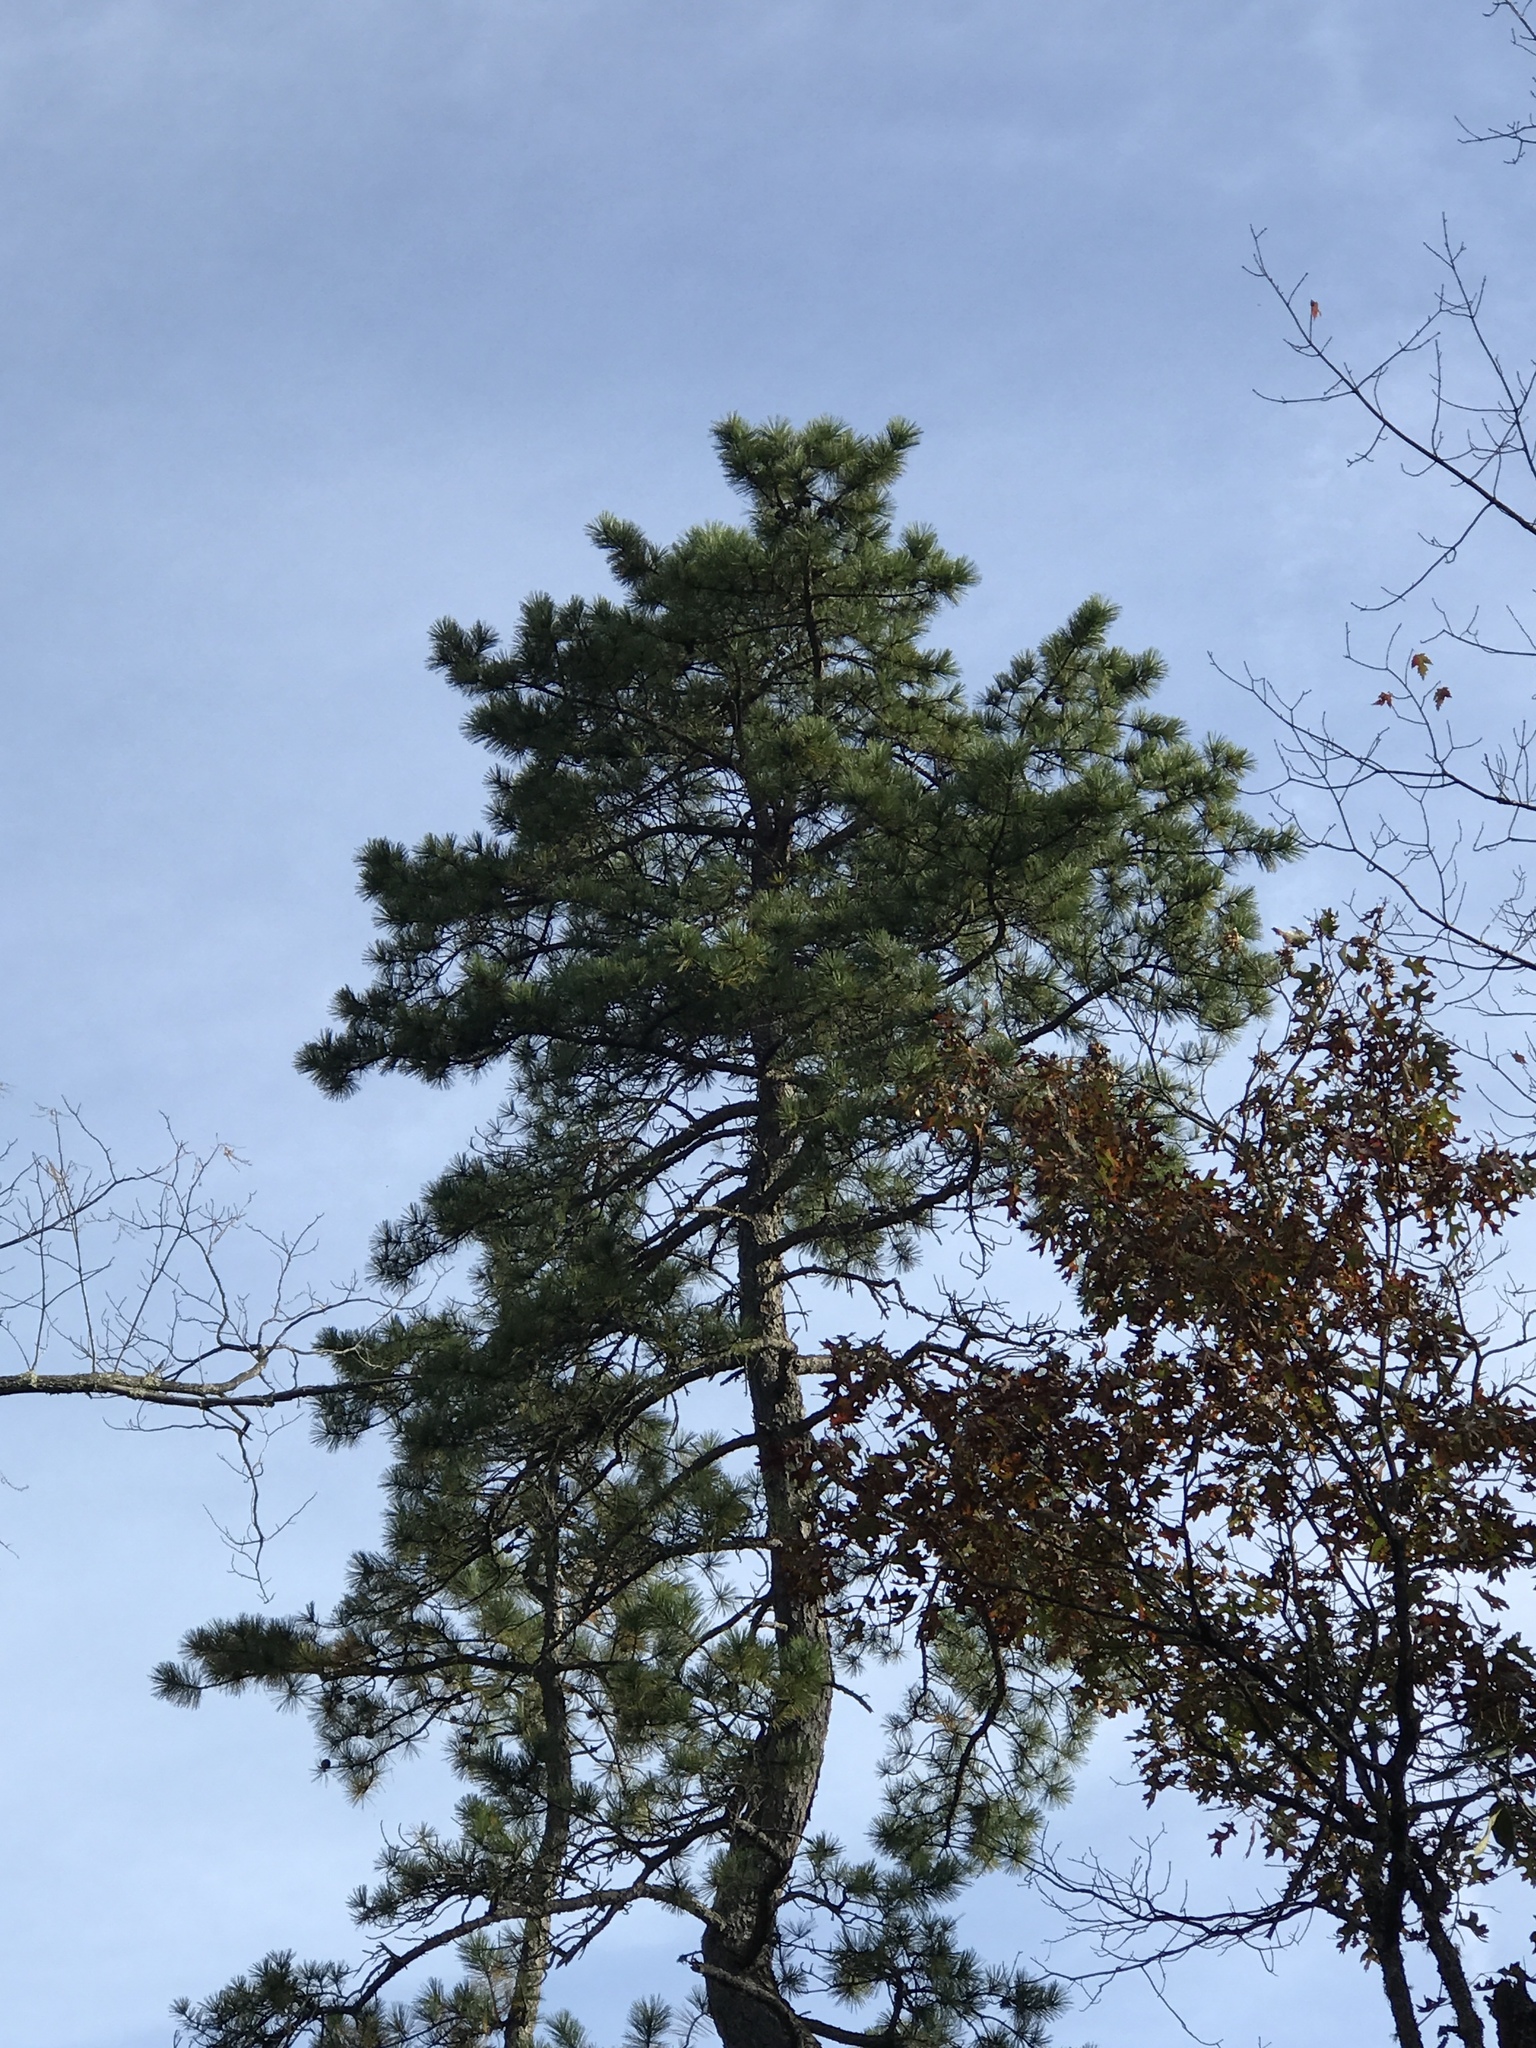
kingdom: Plantae
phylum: Tracheophyta
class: Pinopsida
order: Pinales
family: Pinaceae
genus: Pinus
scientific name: Pinus rigida
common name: Pitch pine
